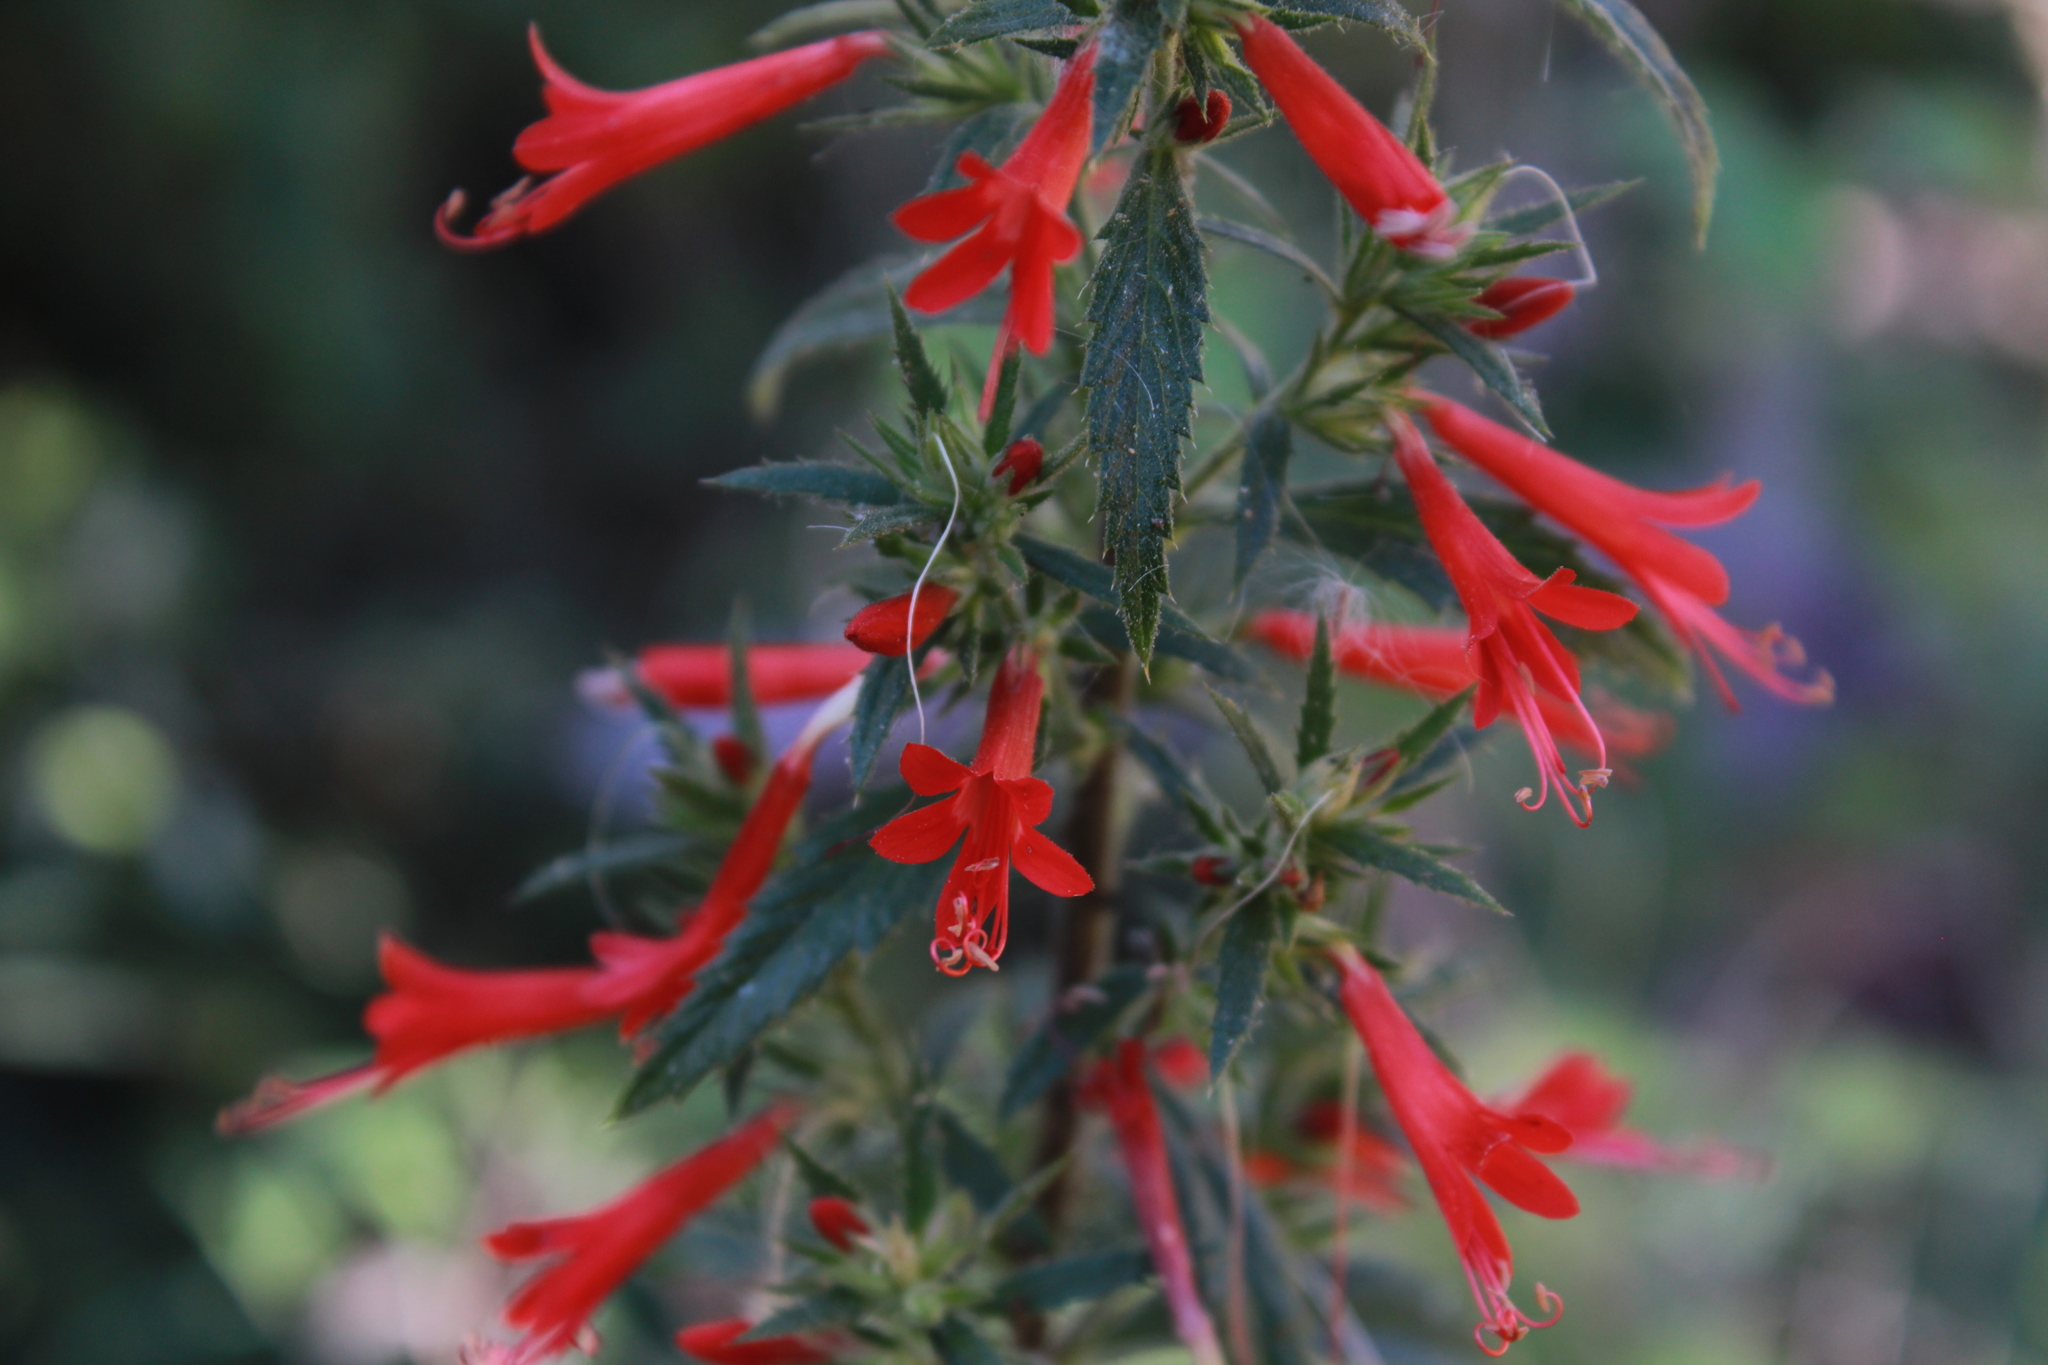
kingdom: Plantae
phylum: Tracheophyta
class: Magnoliopsida
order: Ericales
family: Polemoniaceae
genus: Loeselia
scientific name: Loeselia mexicana
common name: Mexican false calico
